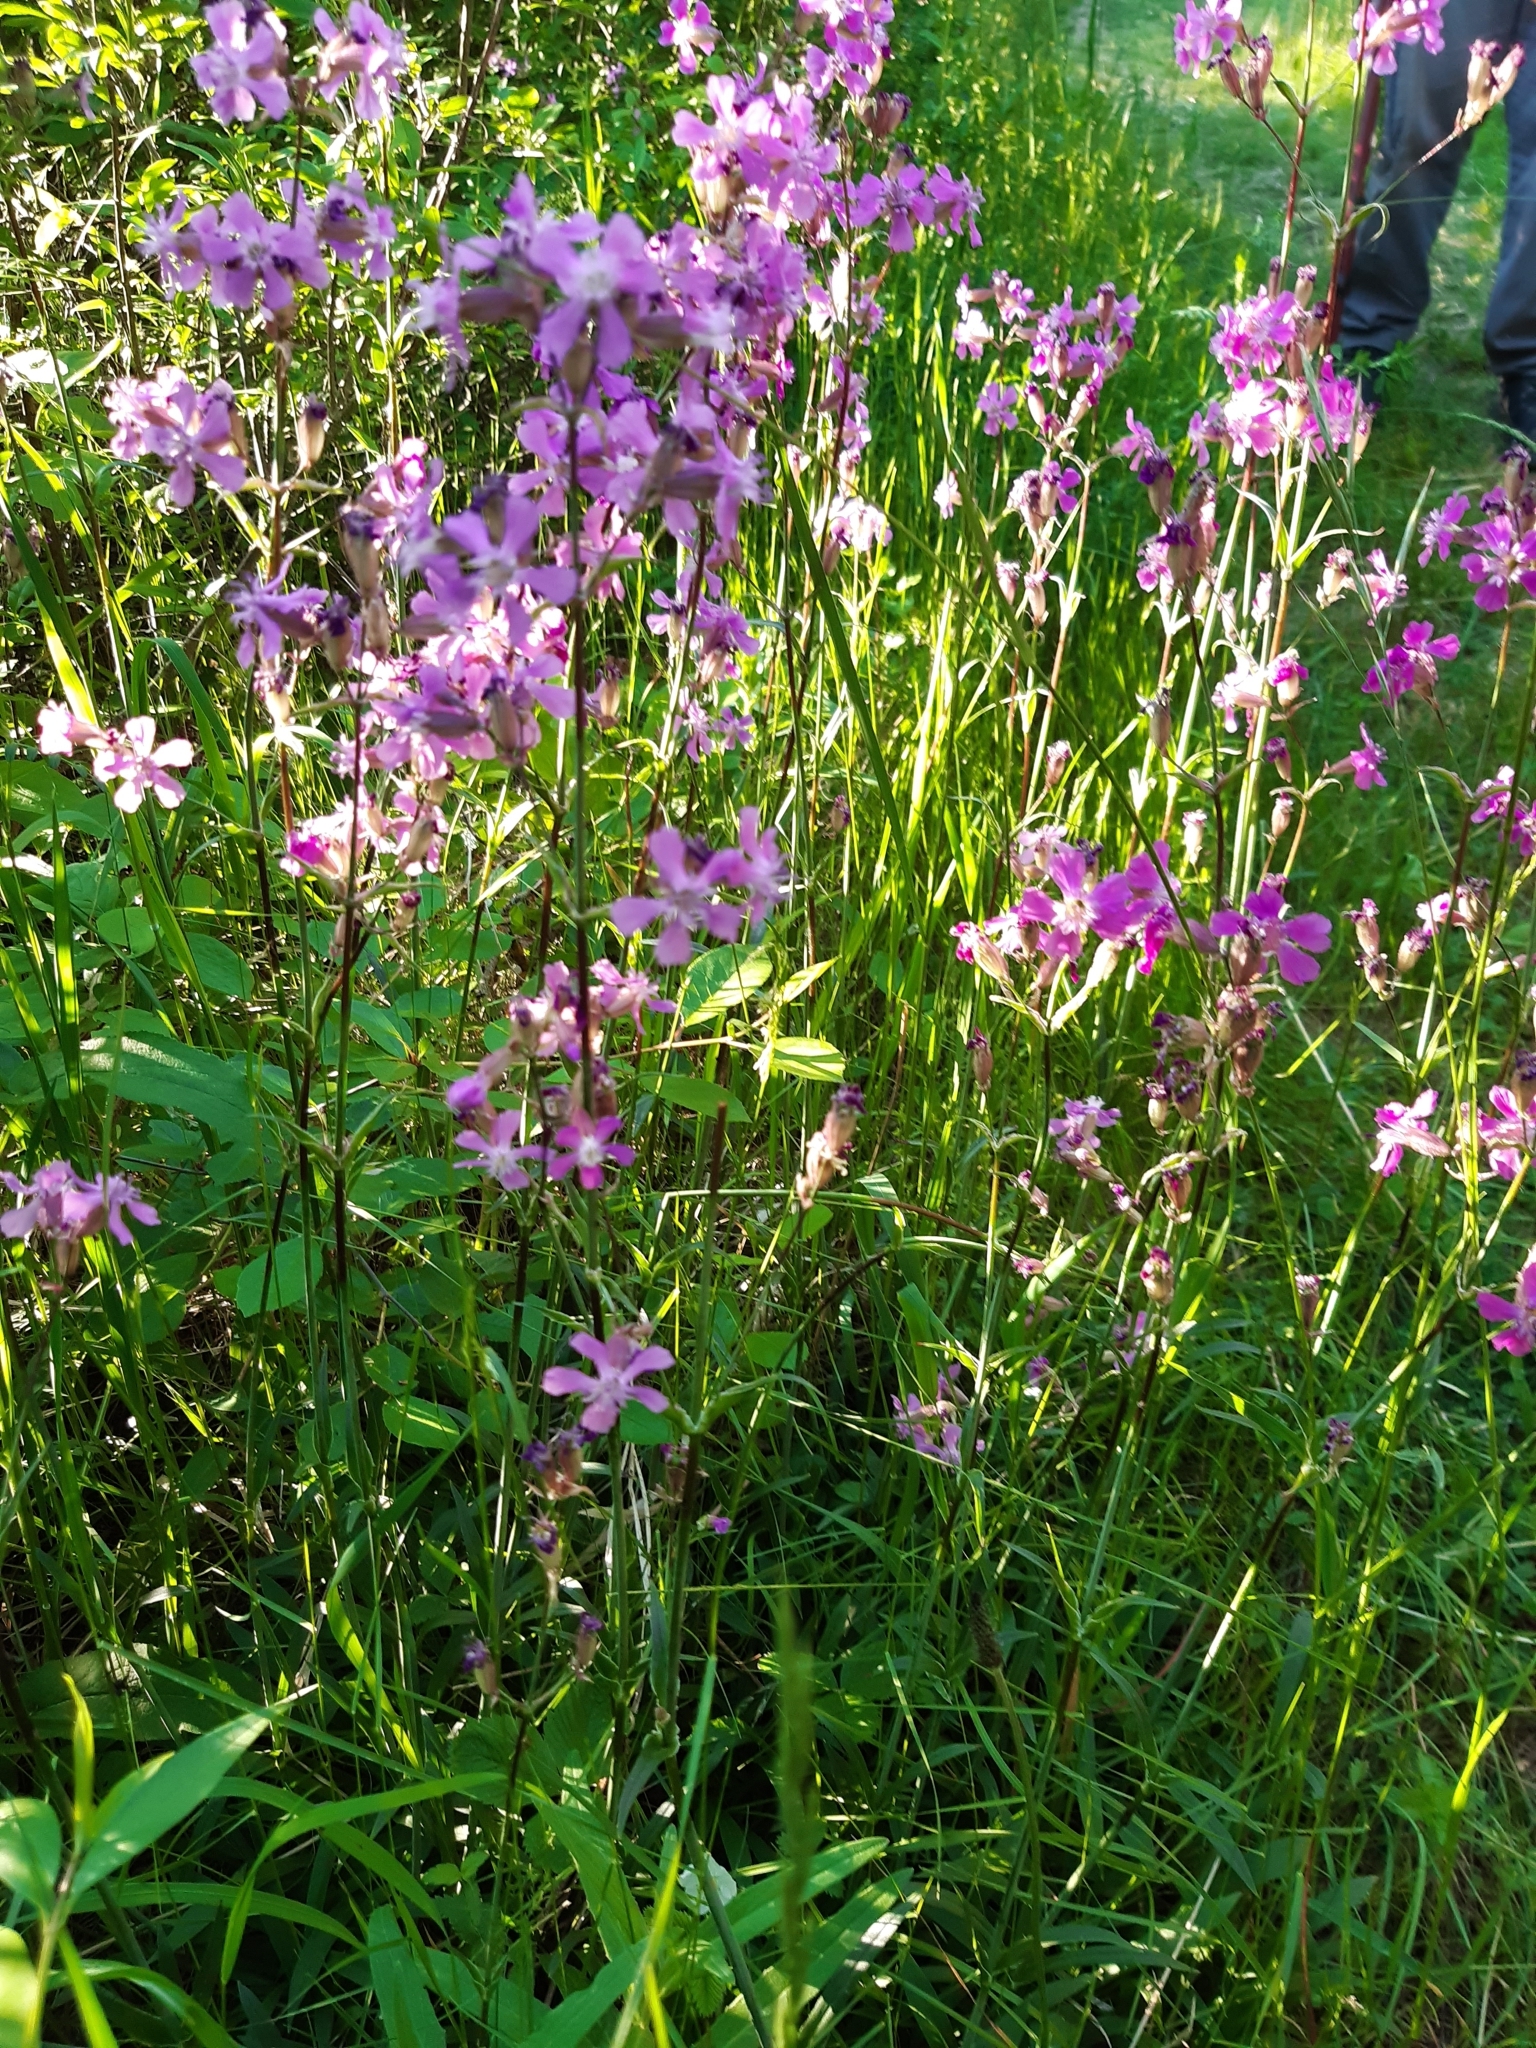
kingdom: Plantae
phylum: Tracheophyta
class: Magnoliopsida
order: Caryophyllales
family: Caryophyllaceae
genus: Viscaria
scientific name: Viscaria vulgaris
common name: Clammy campion
